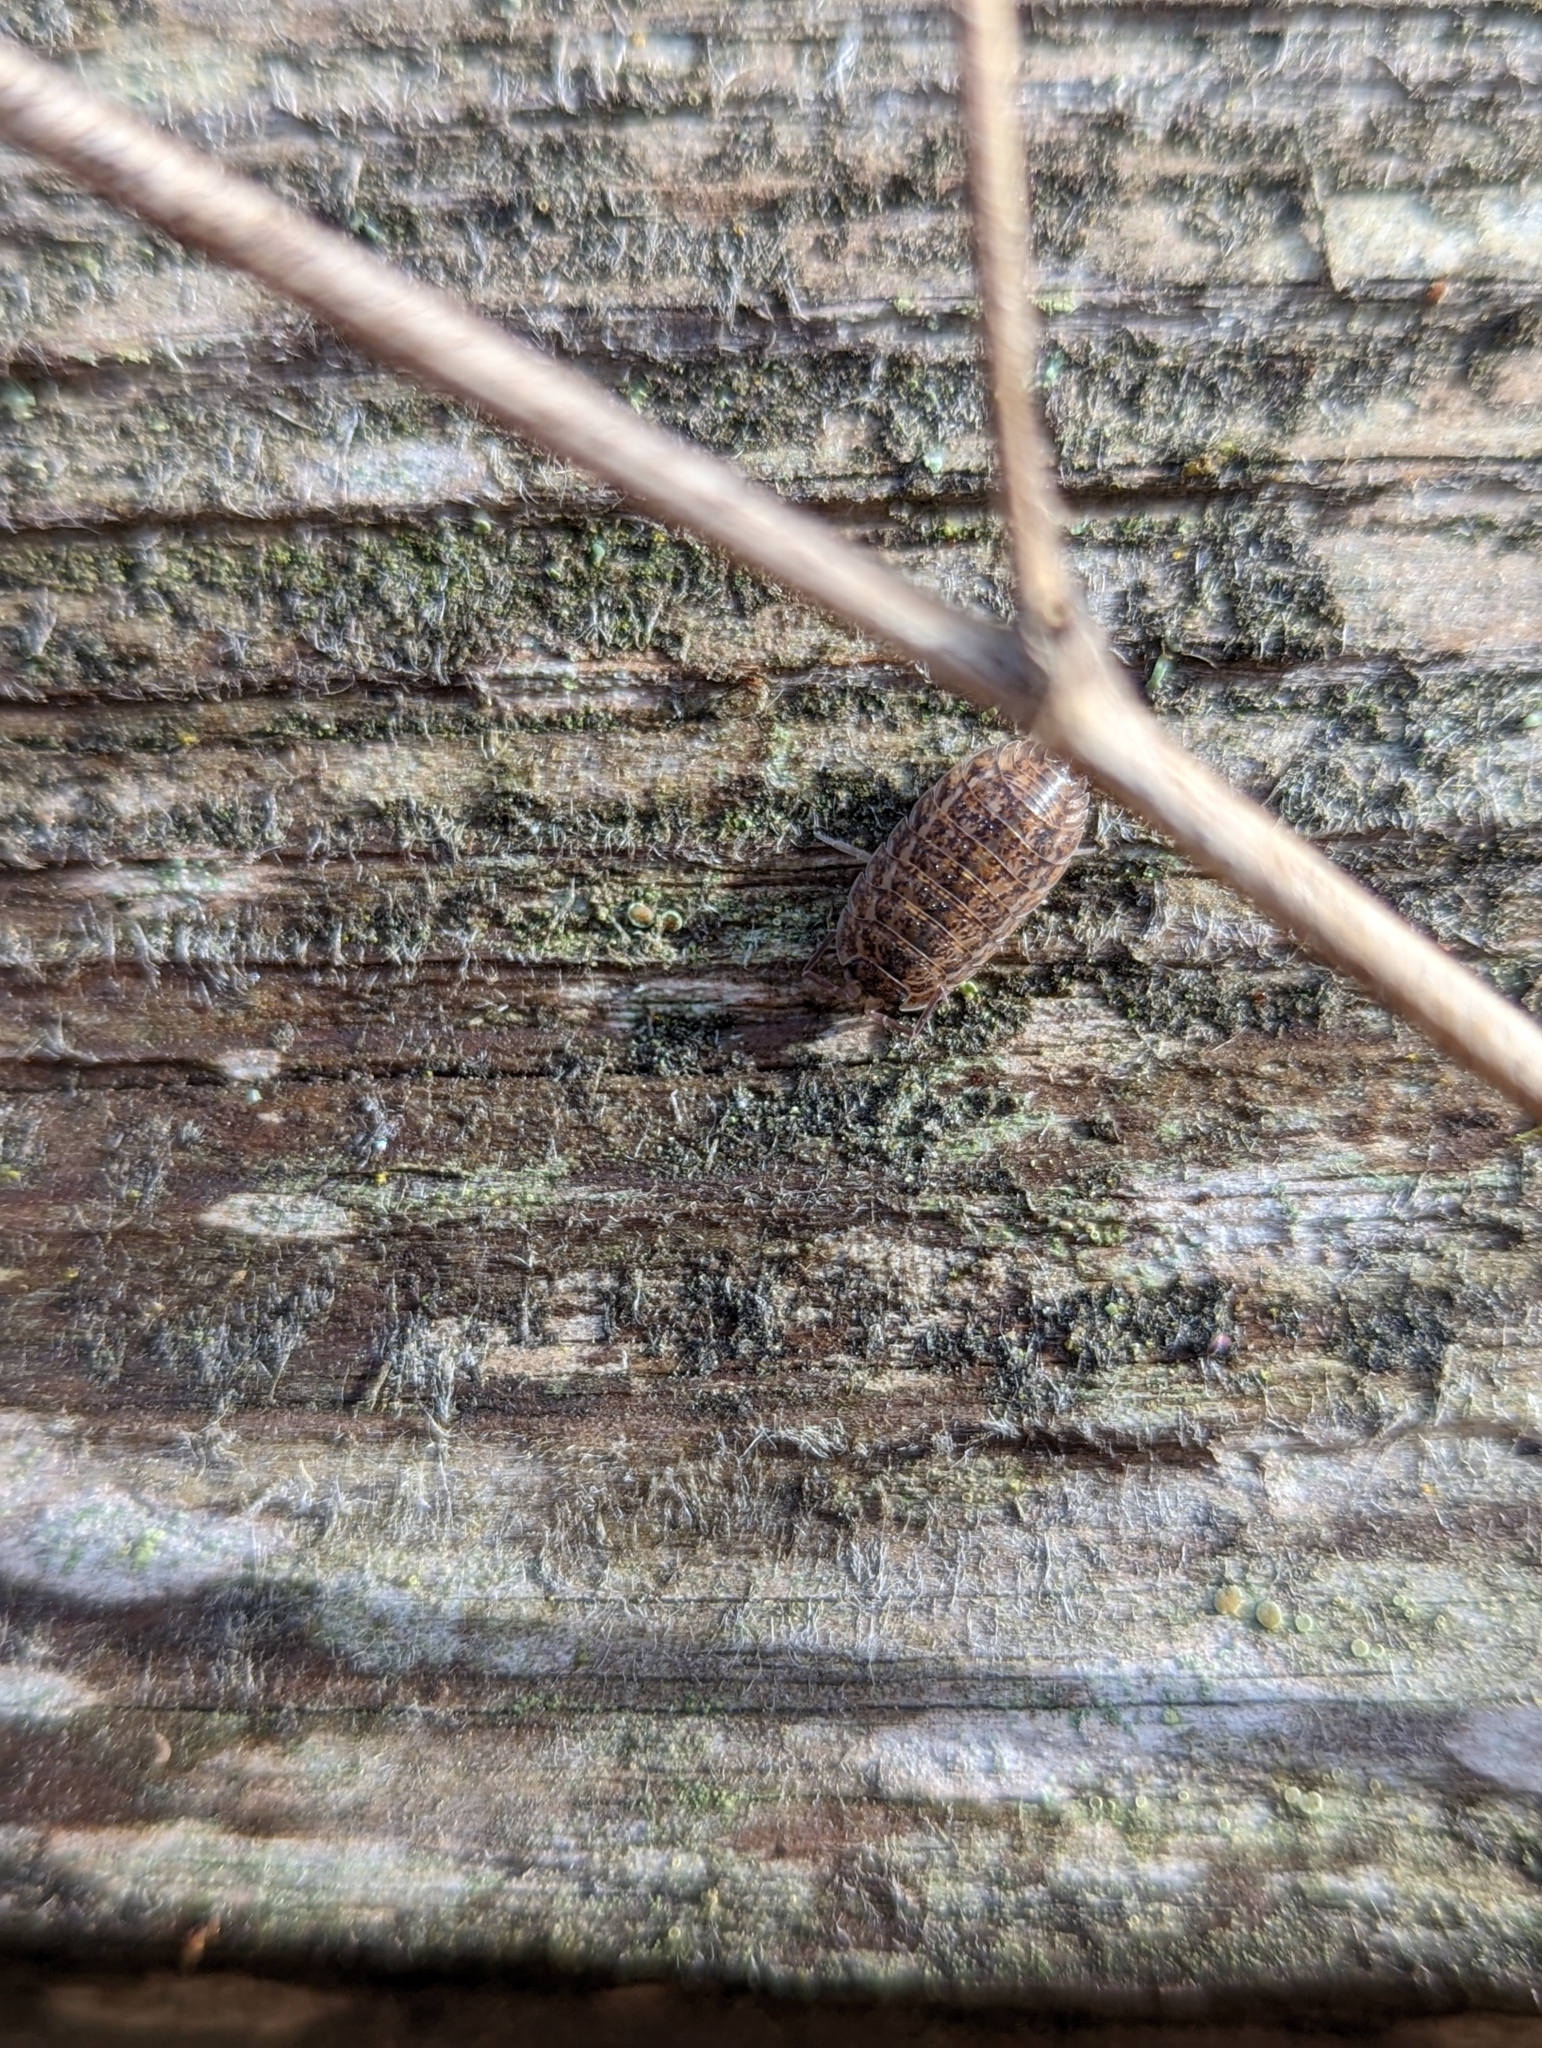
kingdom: Animalia
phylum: Arthropoda
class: Malacostraca
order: Isopoda
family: Trachelipodidae
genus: Trachelipus
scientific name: Trachelipus rathkii
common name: Isopod
